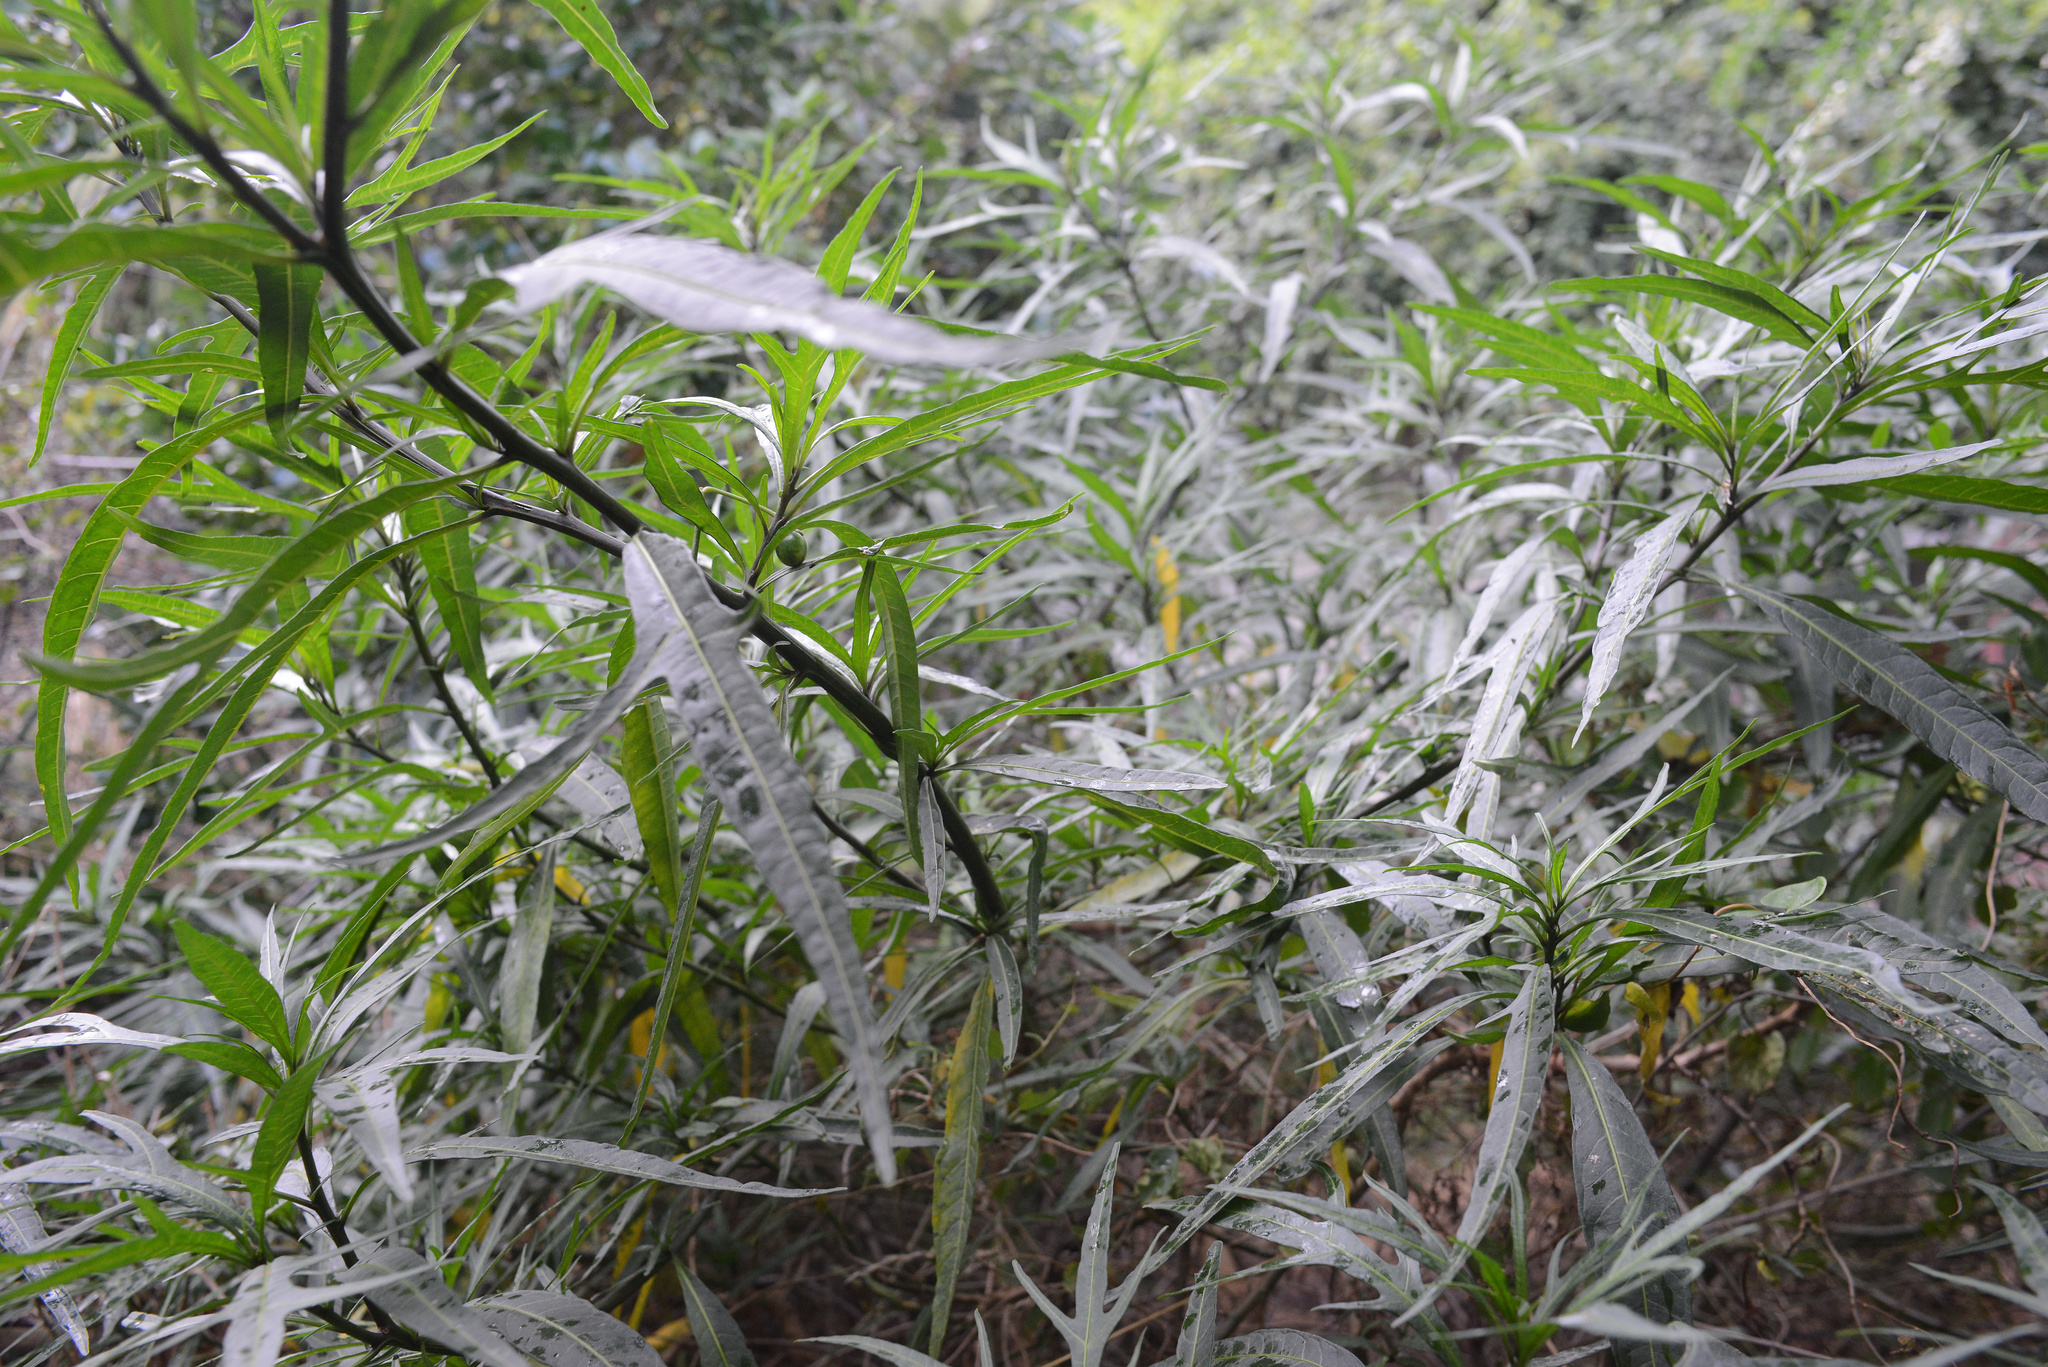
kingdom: Plantae
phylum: Tracheophyta
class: Magnoliopsida
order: Solanales
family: Solanaceae
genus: Solanum
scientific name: Solanum laciniatum
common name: Kangaroo-apple
